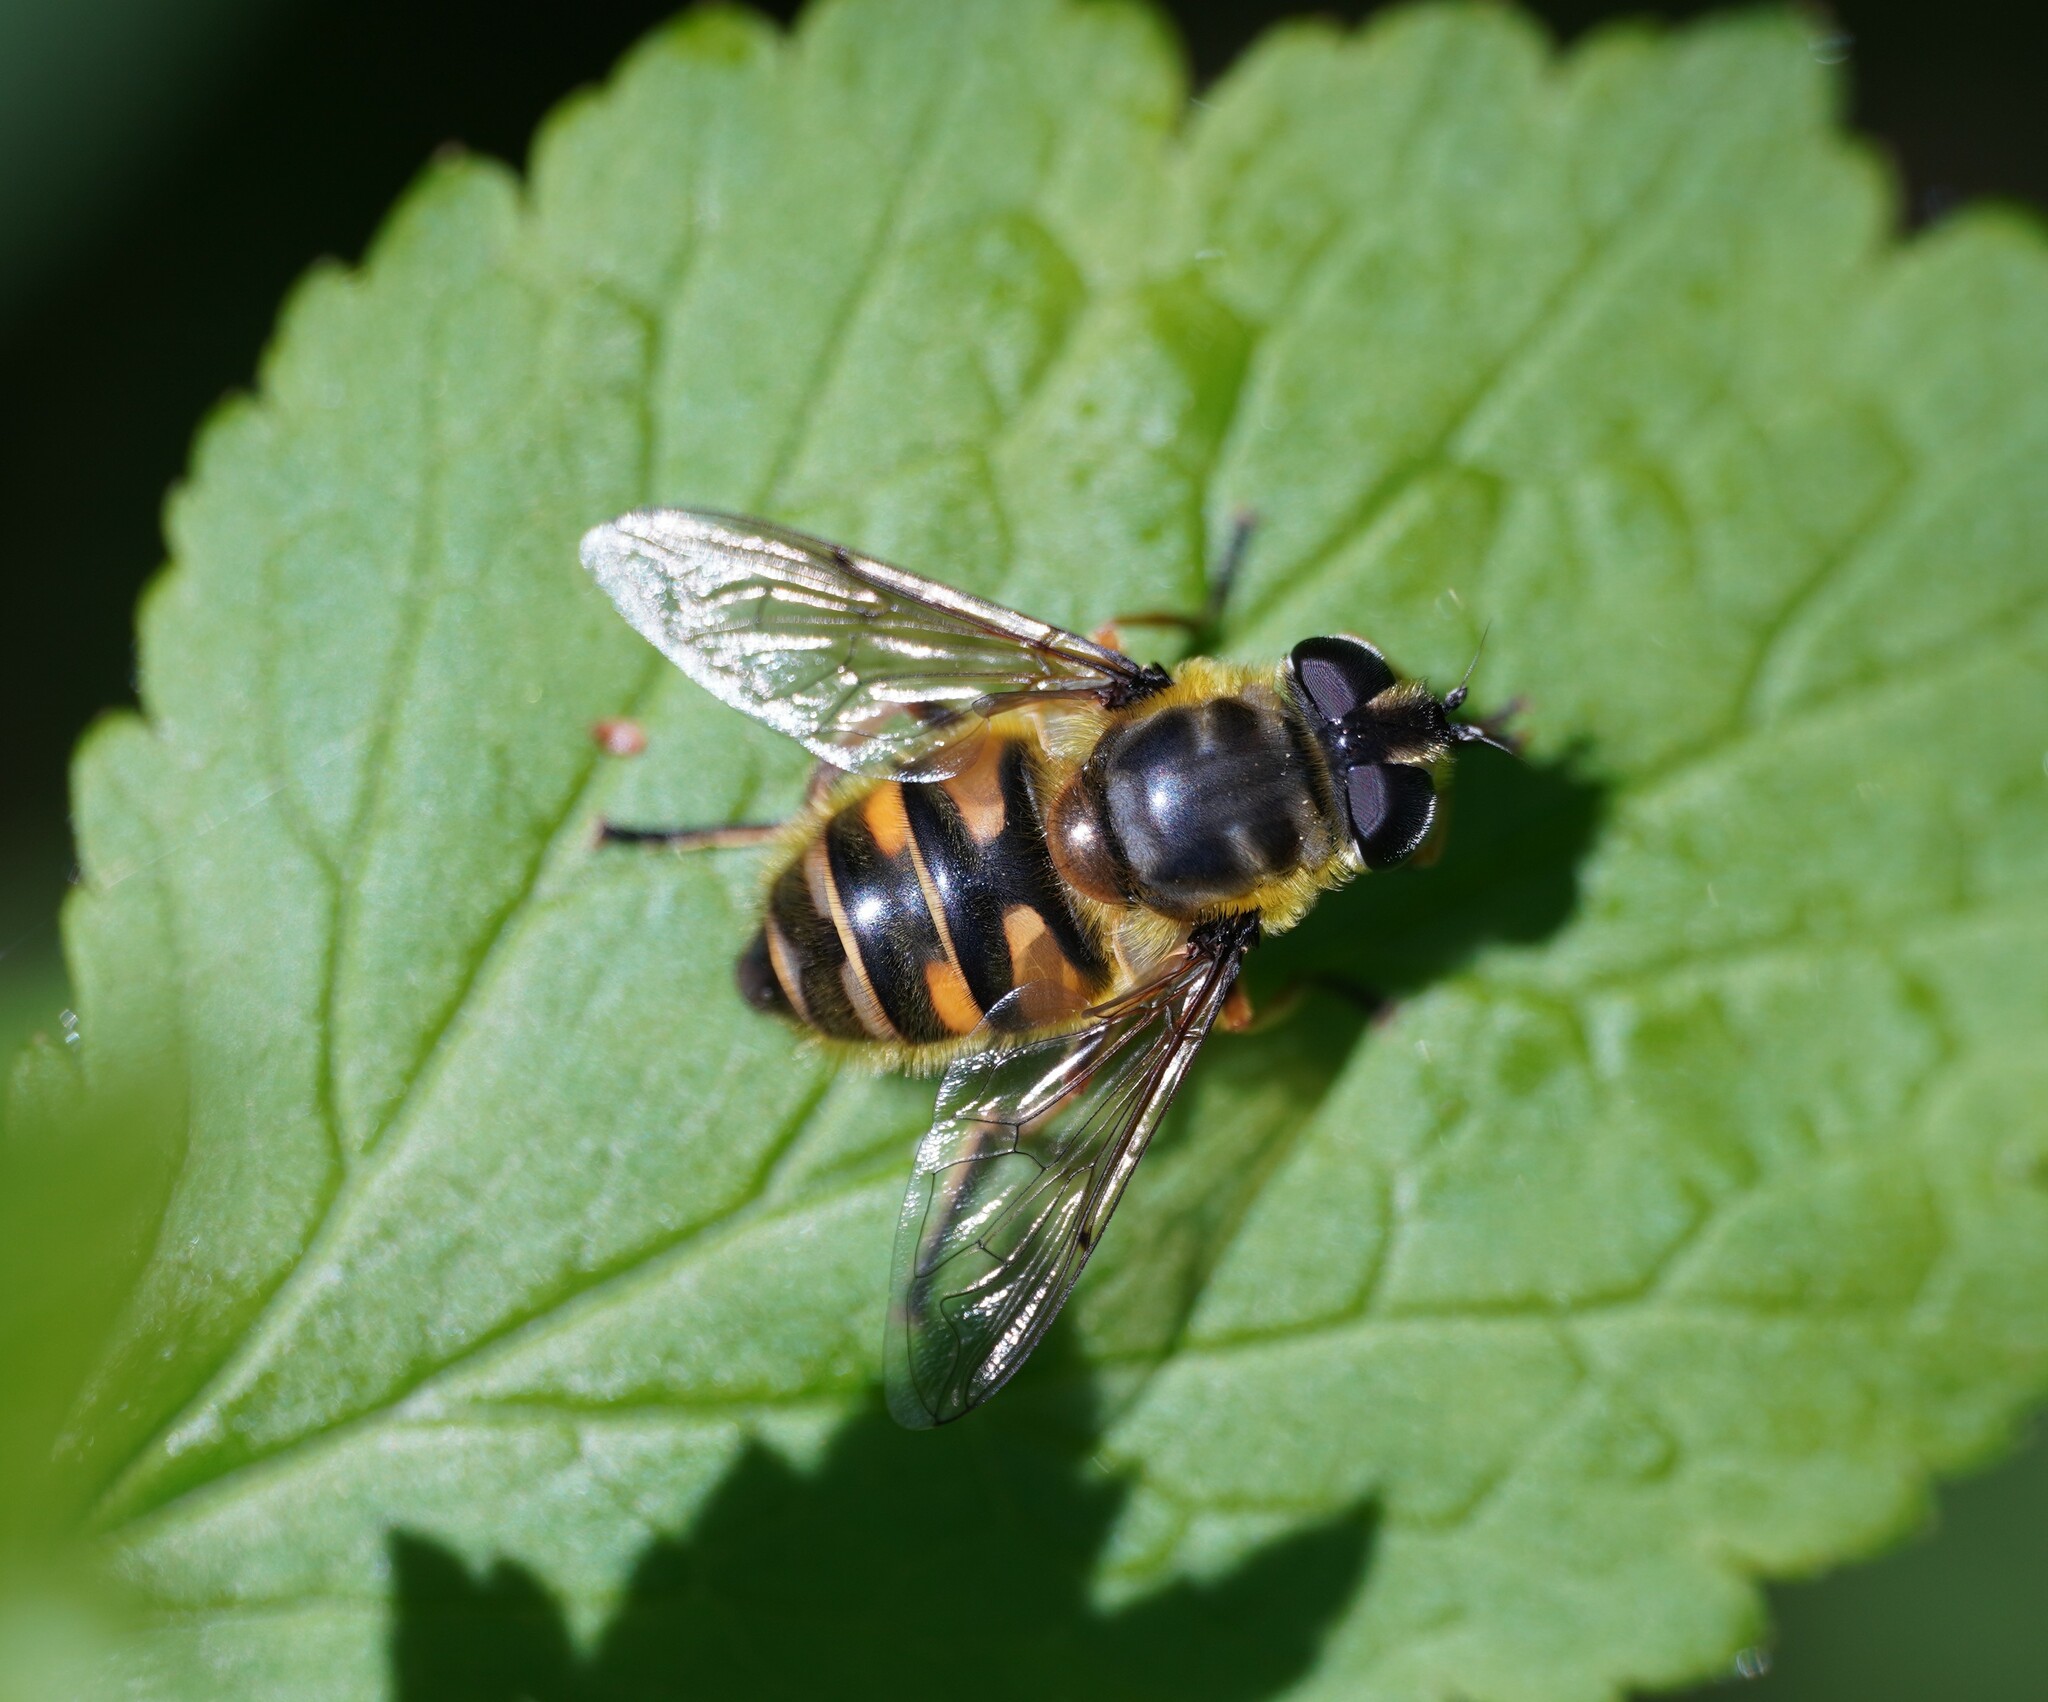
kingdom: Animalia
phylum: Arthropoda
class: Insecta
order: Diptera
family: Syrphidae
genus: Myathropa
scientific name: Myathropa florea
